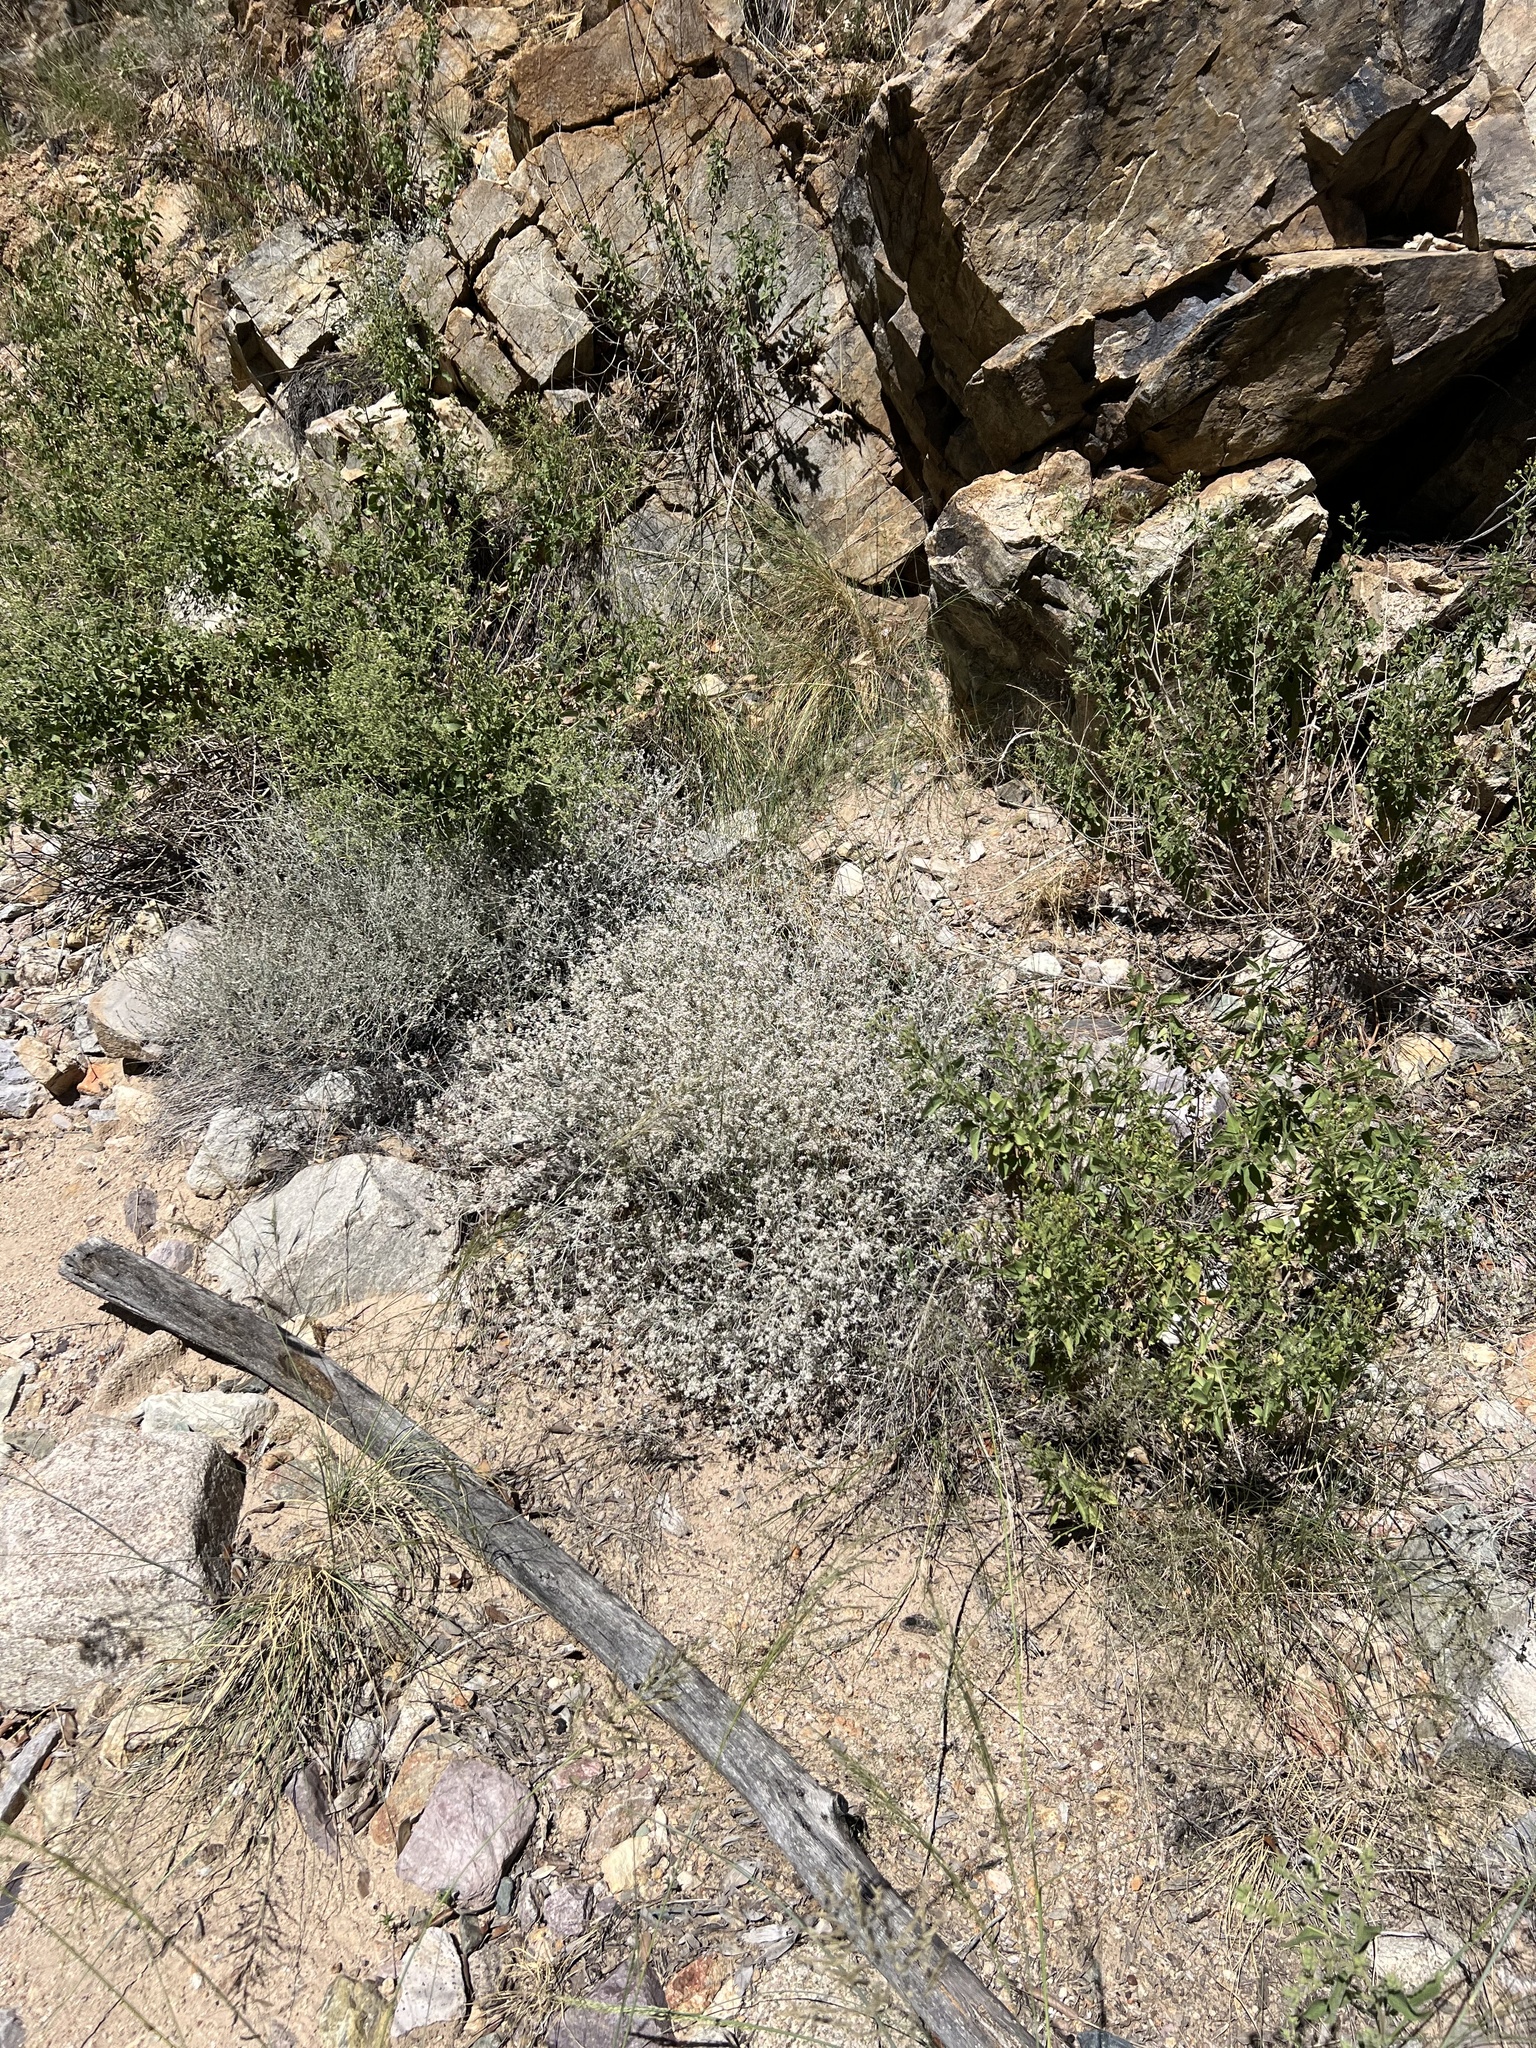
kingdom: Plantae
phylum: Tracheophyta
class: Magnoliopsida
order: Caryophyllales
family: Polygonaceae
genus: Eriogonum
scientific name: Eriogonum wrightii
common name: Bastard-sage
